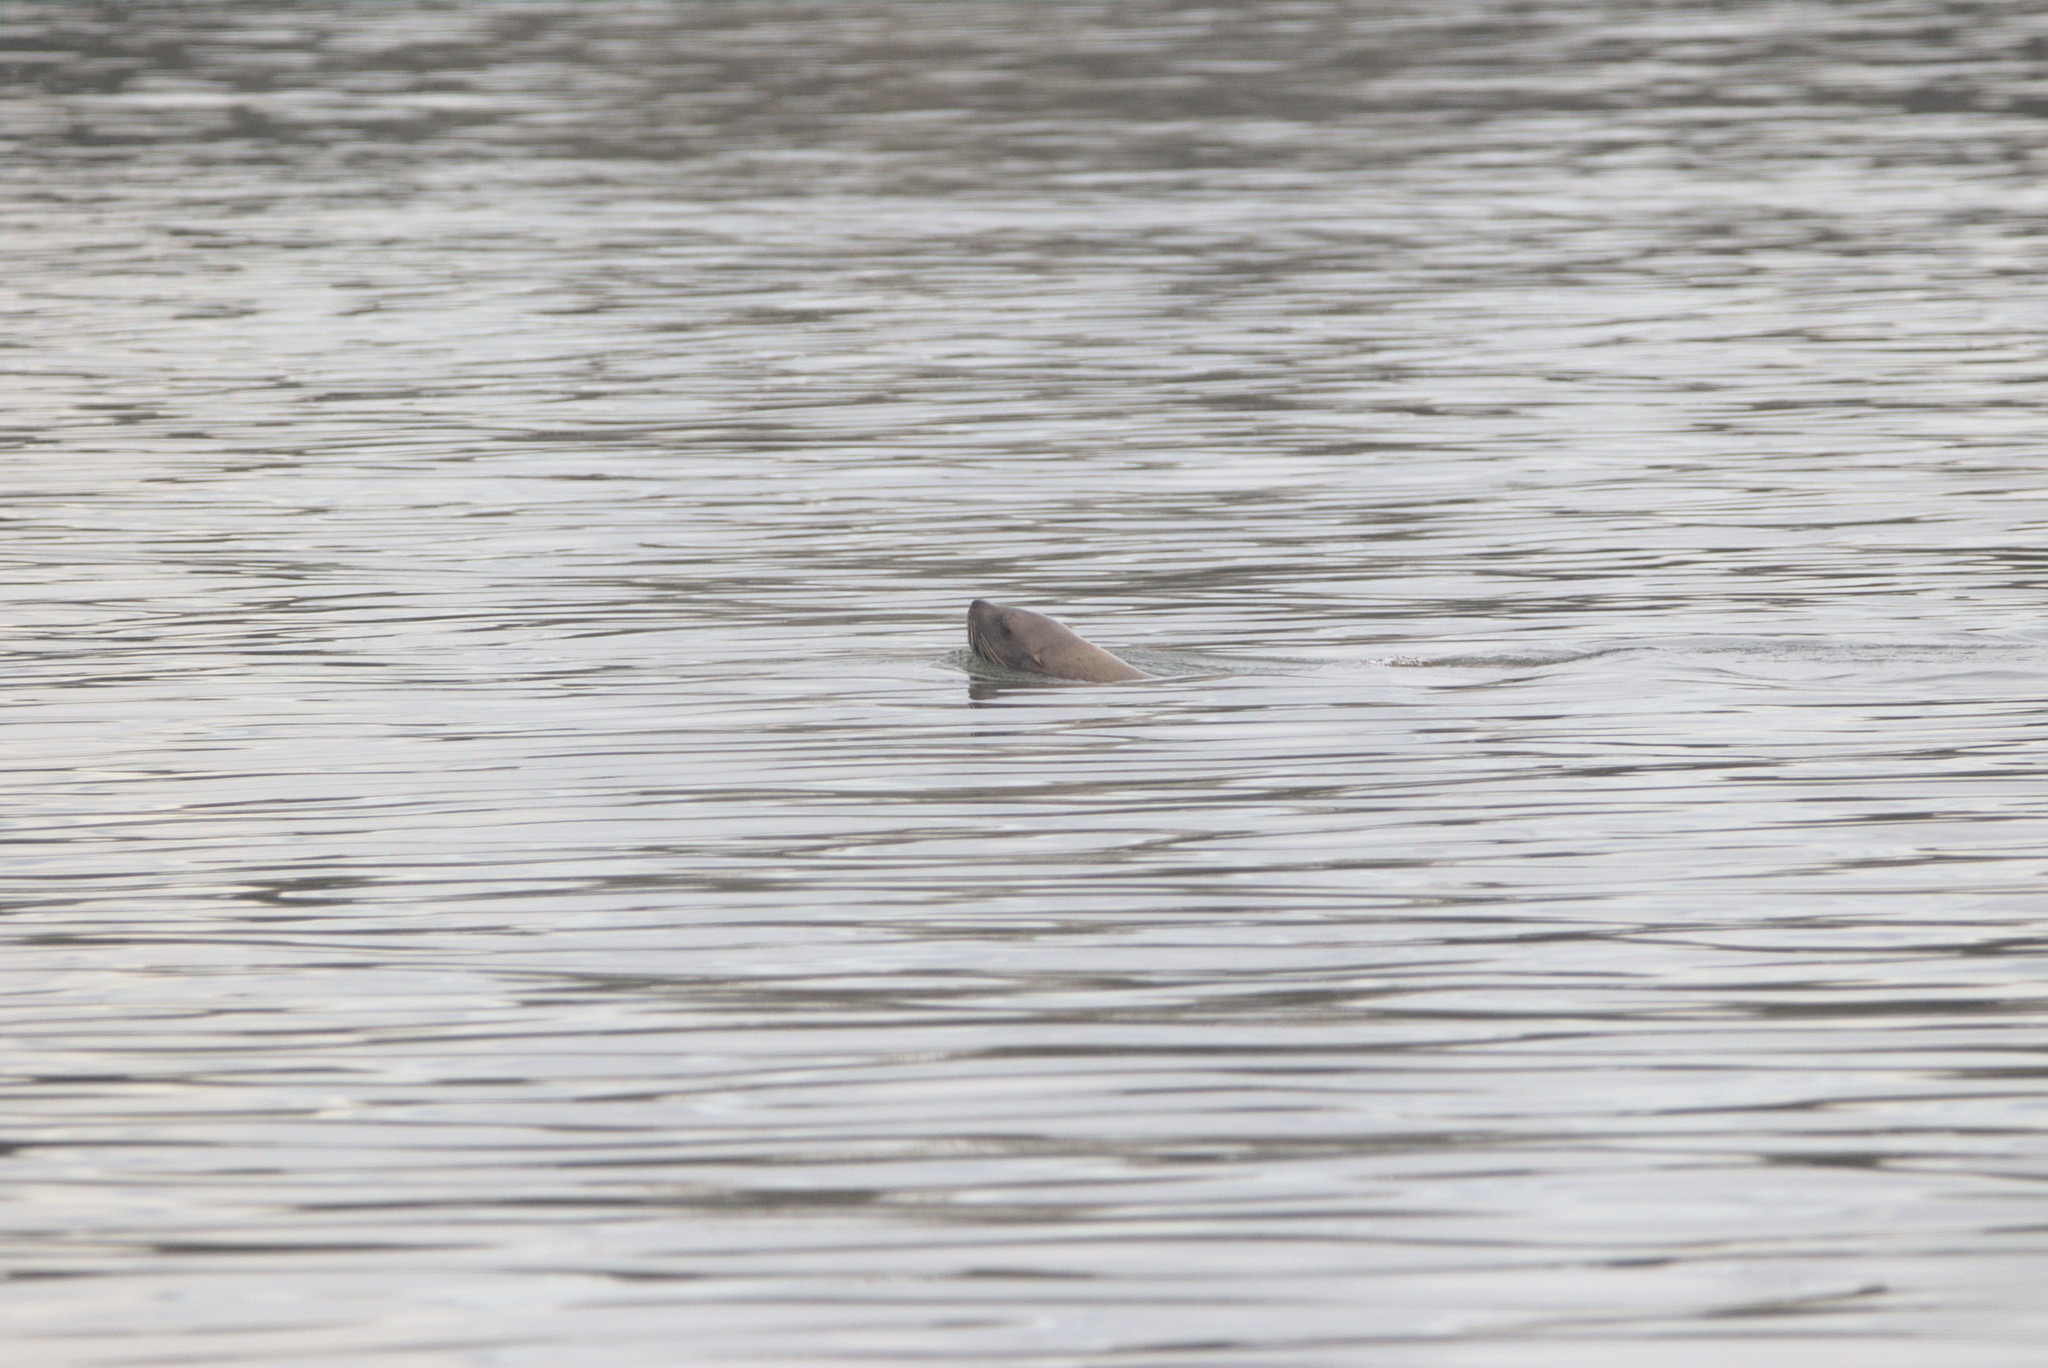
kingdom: Animalia
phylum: Chordata
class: Mammalia
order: Carnivora
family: Otariidae
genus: Eumetopias
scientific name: Eumetopias jubatus
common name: Steller sea lion
